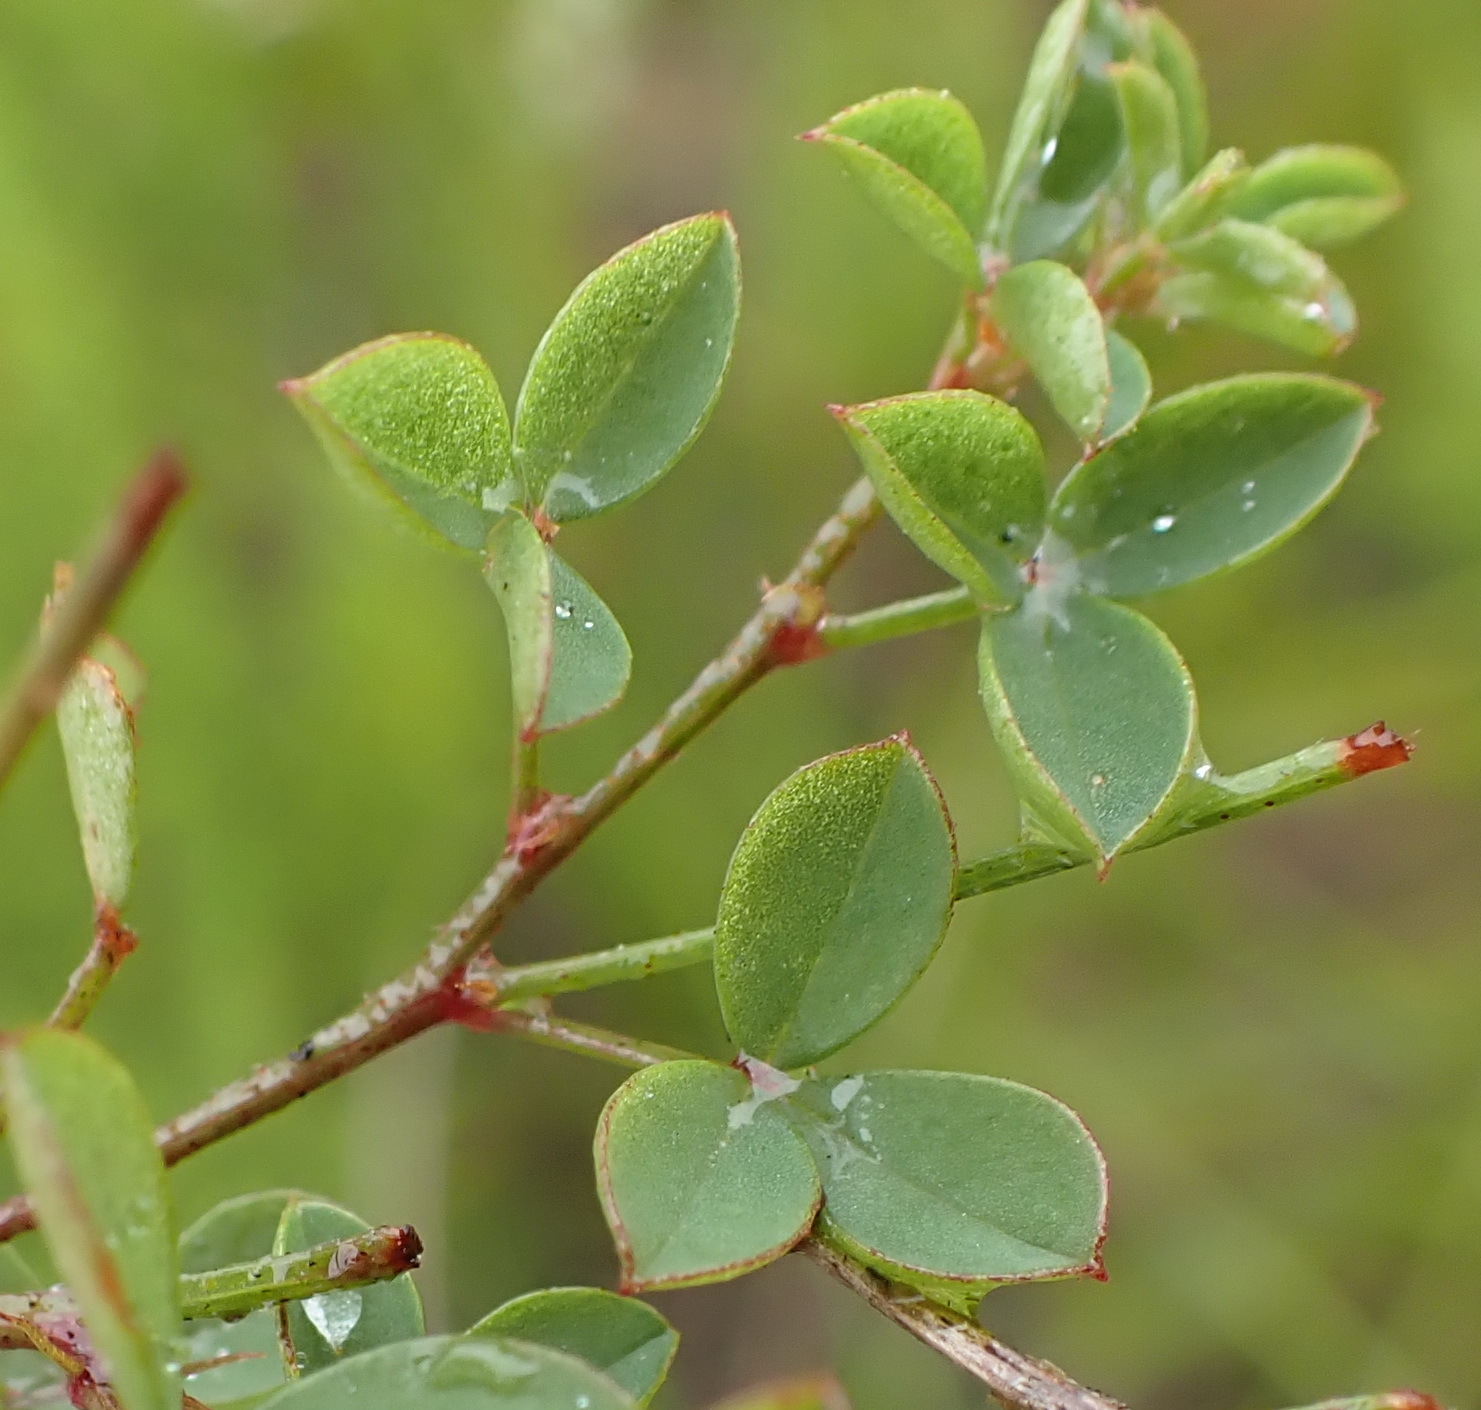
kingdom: Plantae
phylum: Tracheophyta
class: Magnoliopsida
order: Fabales
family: Fabaceae
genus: Indigofera
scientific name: Indigofera erecta
